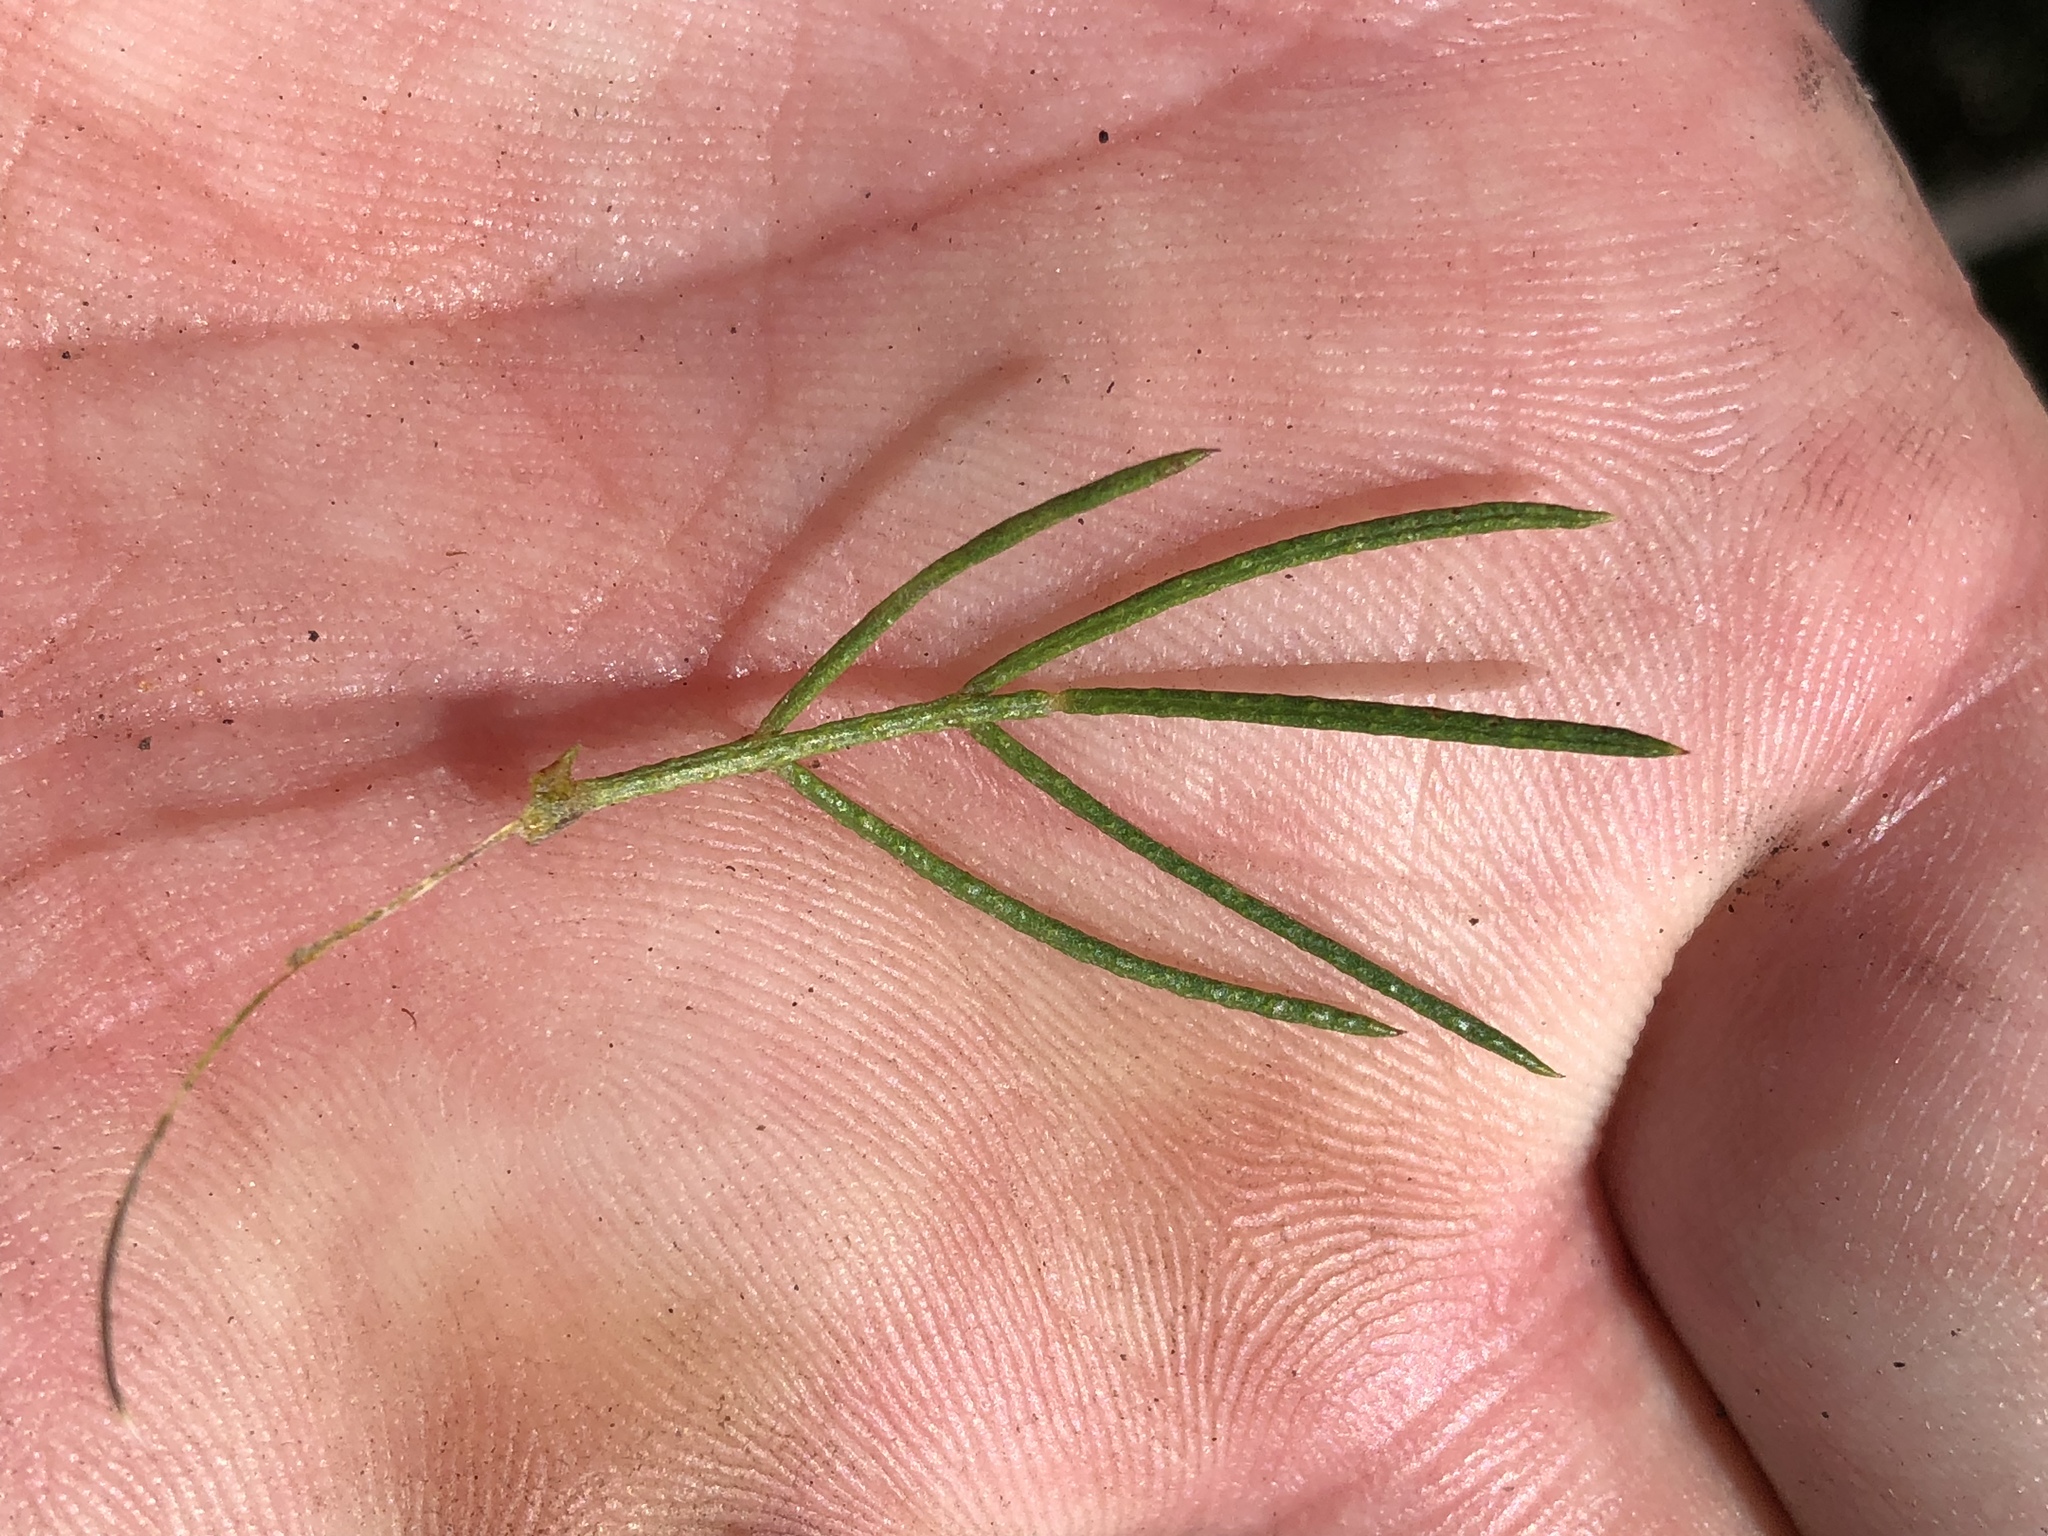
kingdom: Plantae
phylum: Tracheophyta
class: Magnoliopsida
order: Fabales
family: Fabaceae
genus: Psoralea
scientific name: Psoralea speciosa
